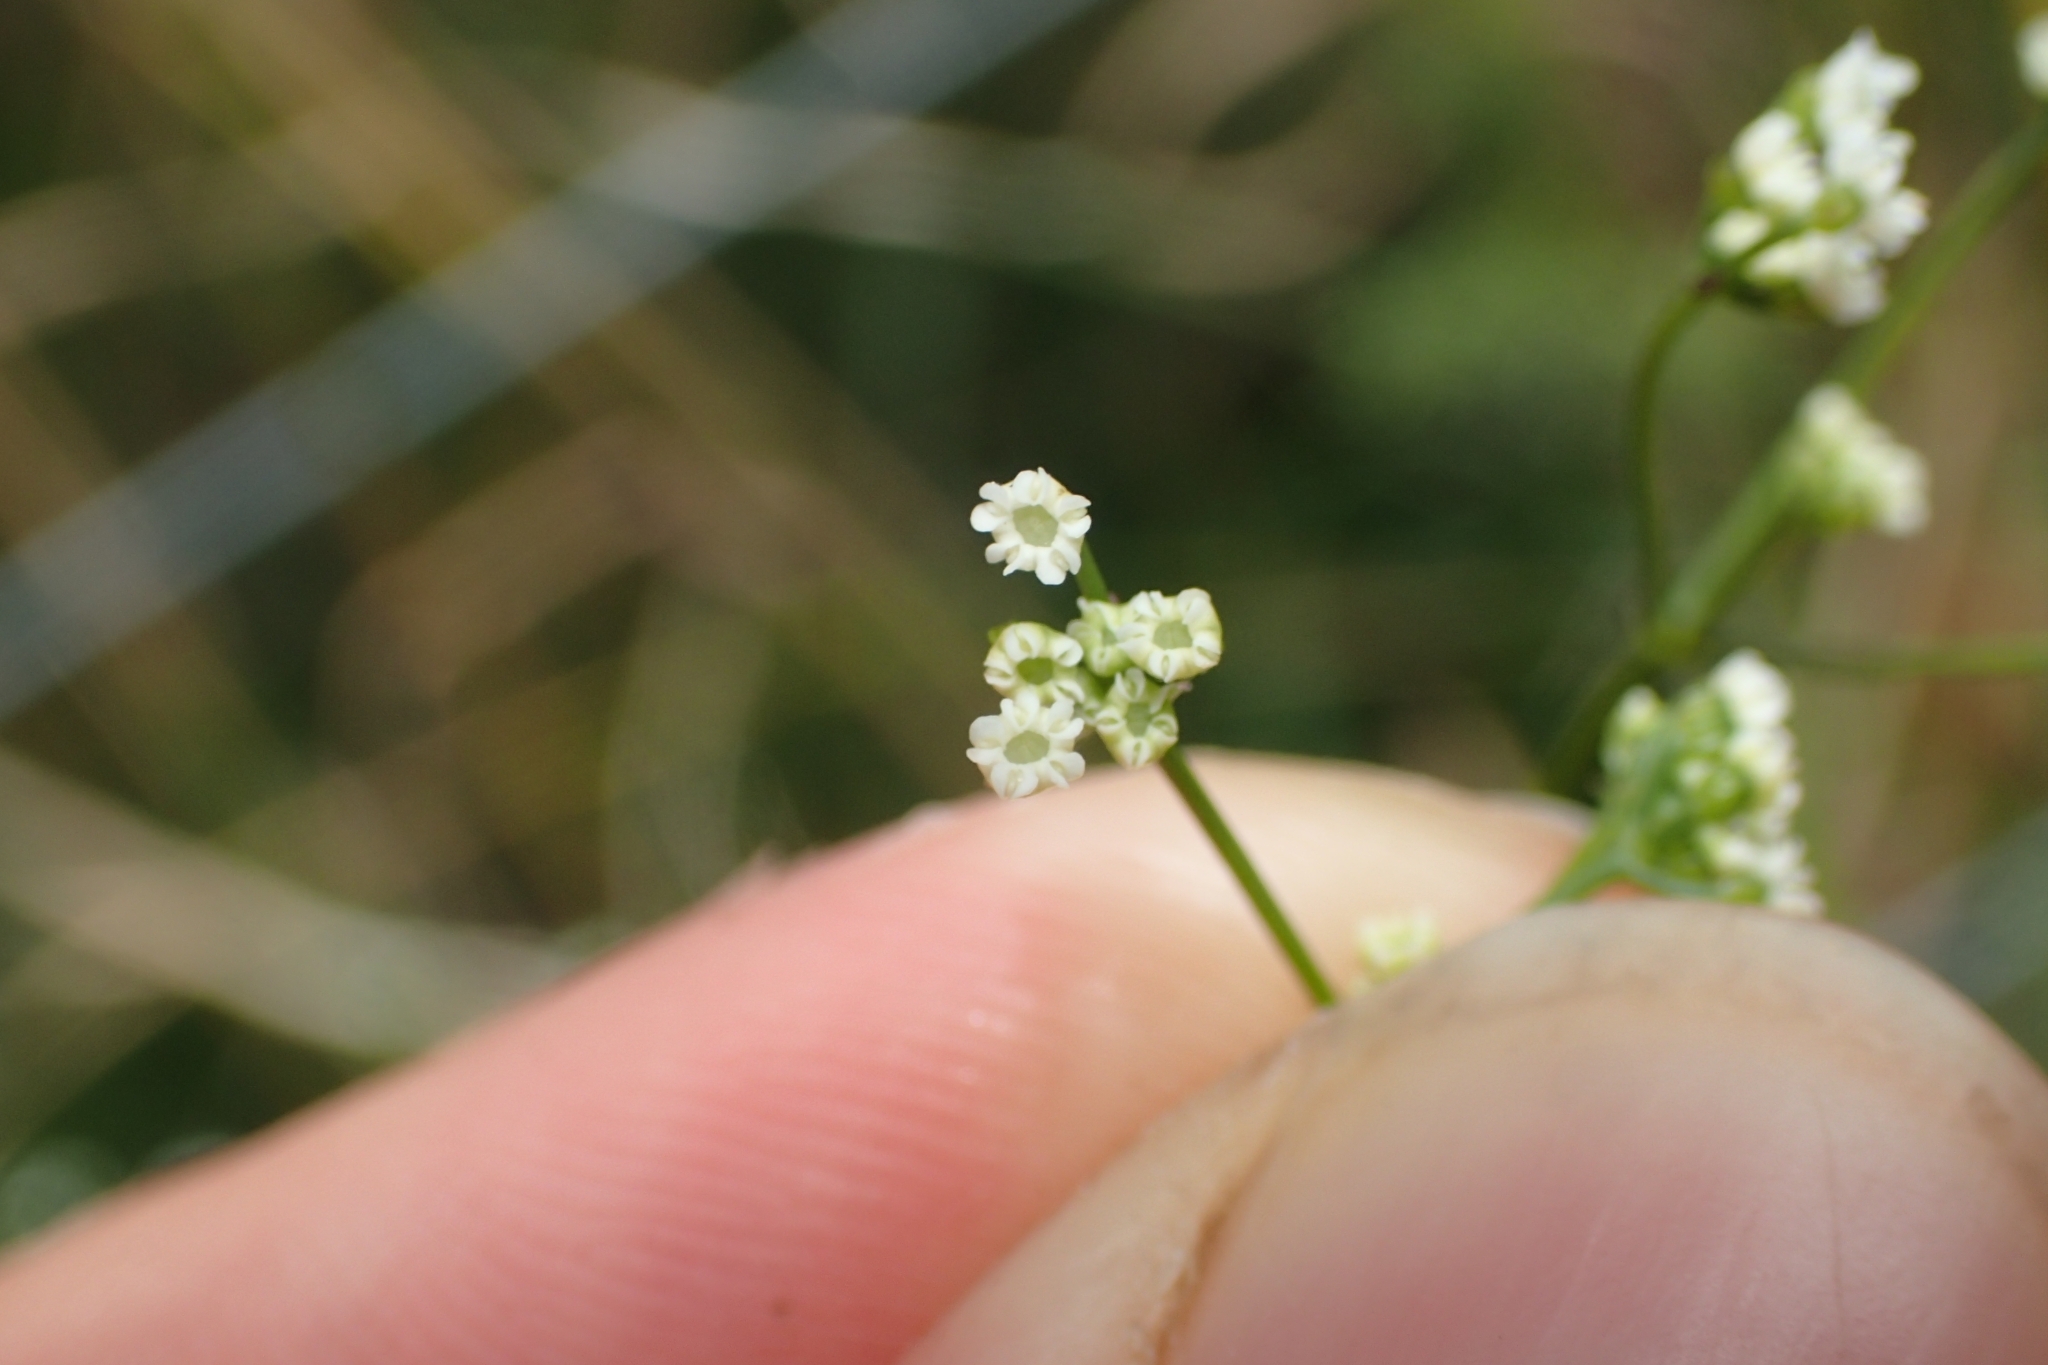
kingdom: Plantae
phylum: Tracheophyta
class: Magnoliopsida
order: Apiales
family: Apiaceae
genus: Sison
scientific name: Sison amomum
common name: Stone-parsley
